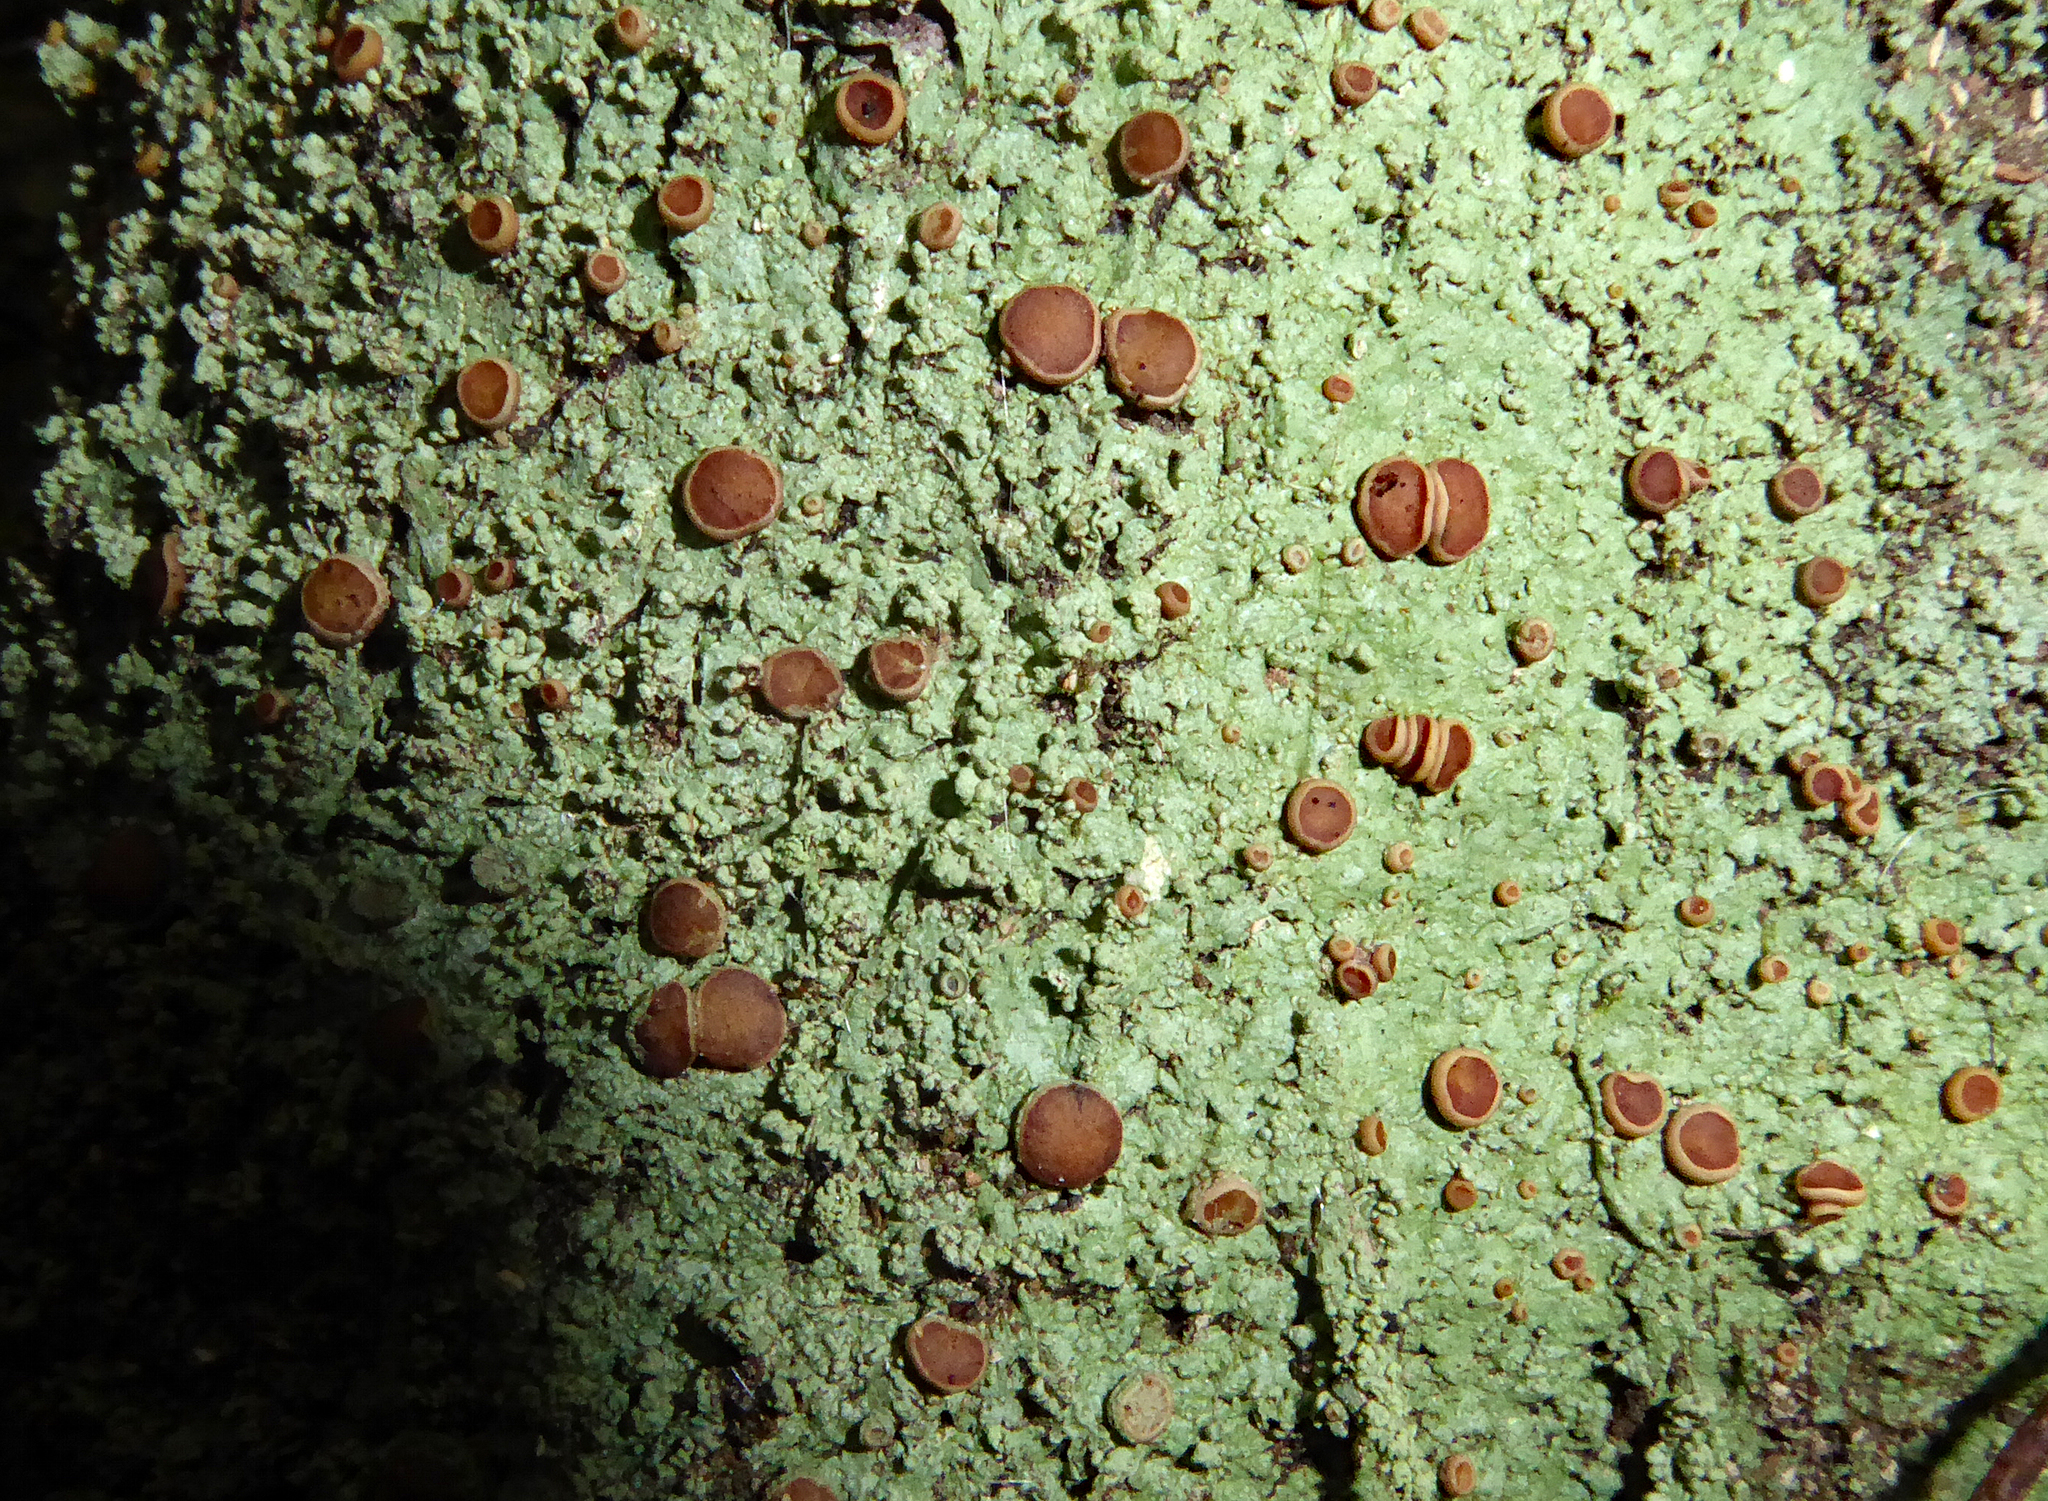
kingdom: Fungi
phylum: Ascomycota
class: Lecanoromycetes
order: Teloschistales
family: Megalosporaceae
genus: Megalospora
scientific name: Megalospora knightii
